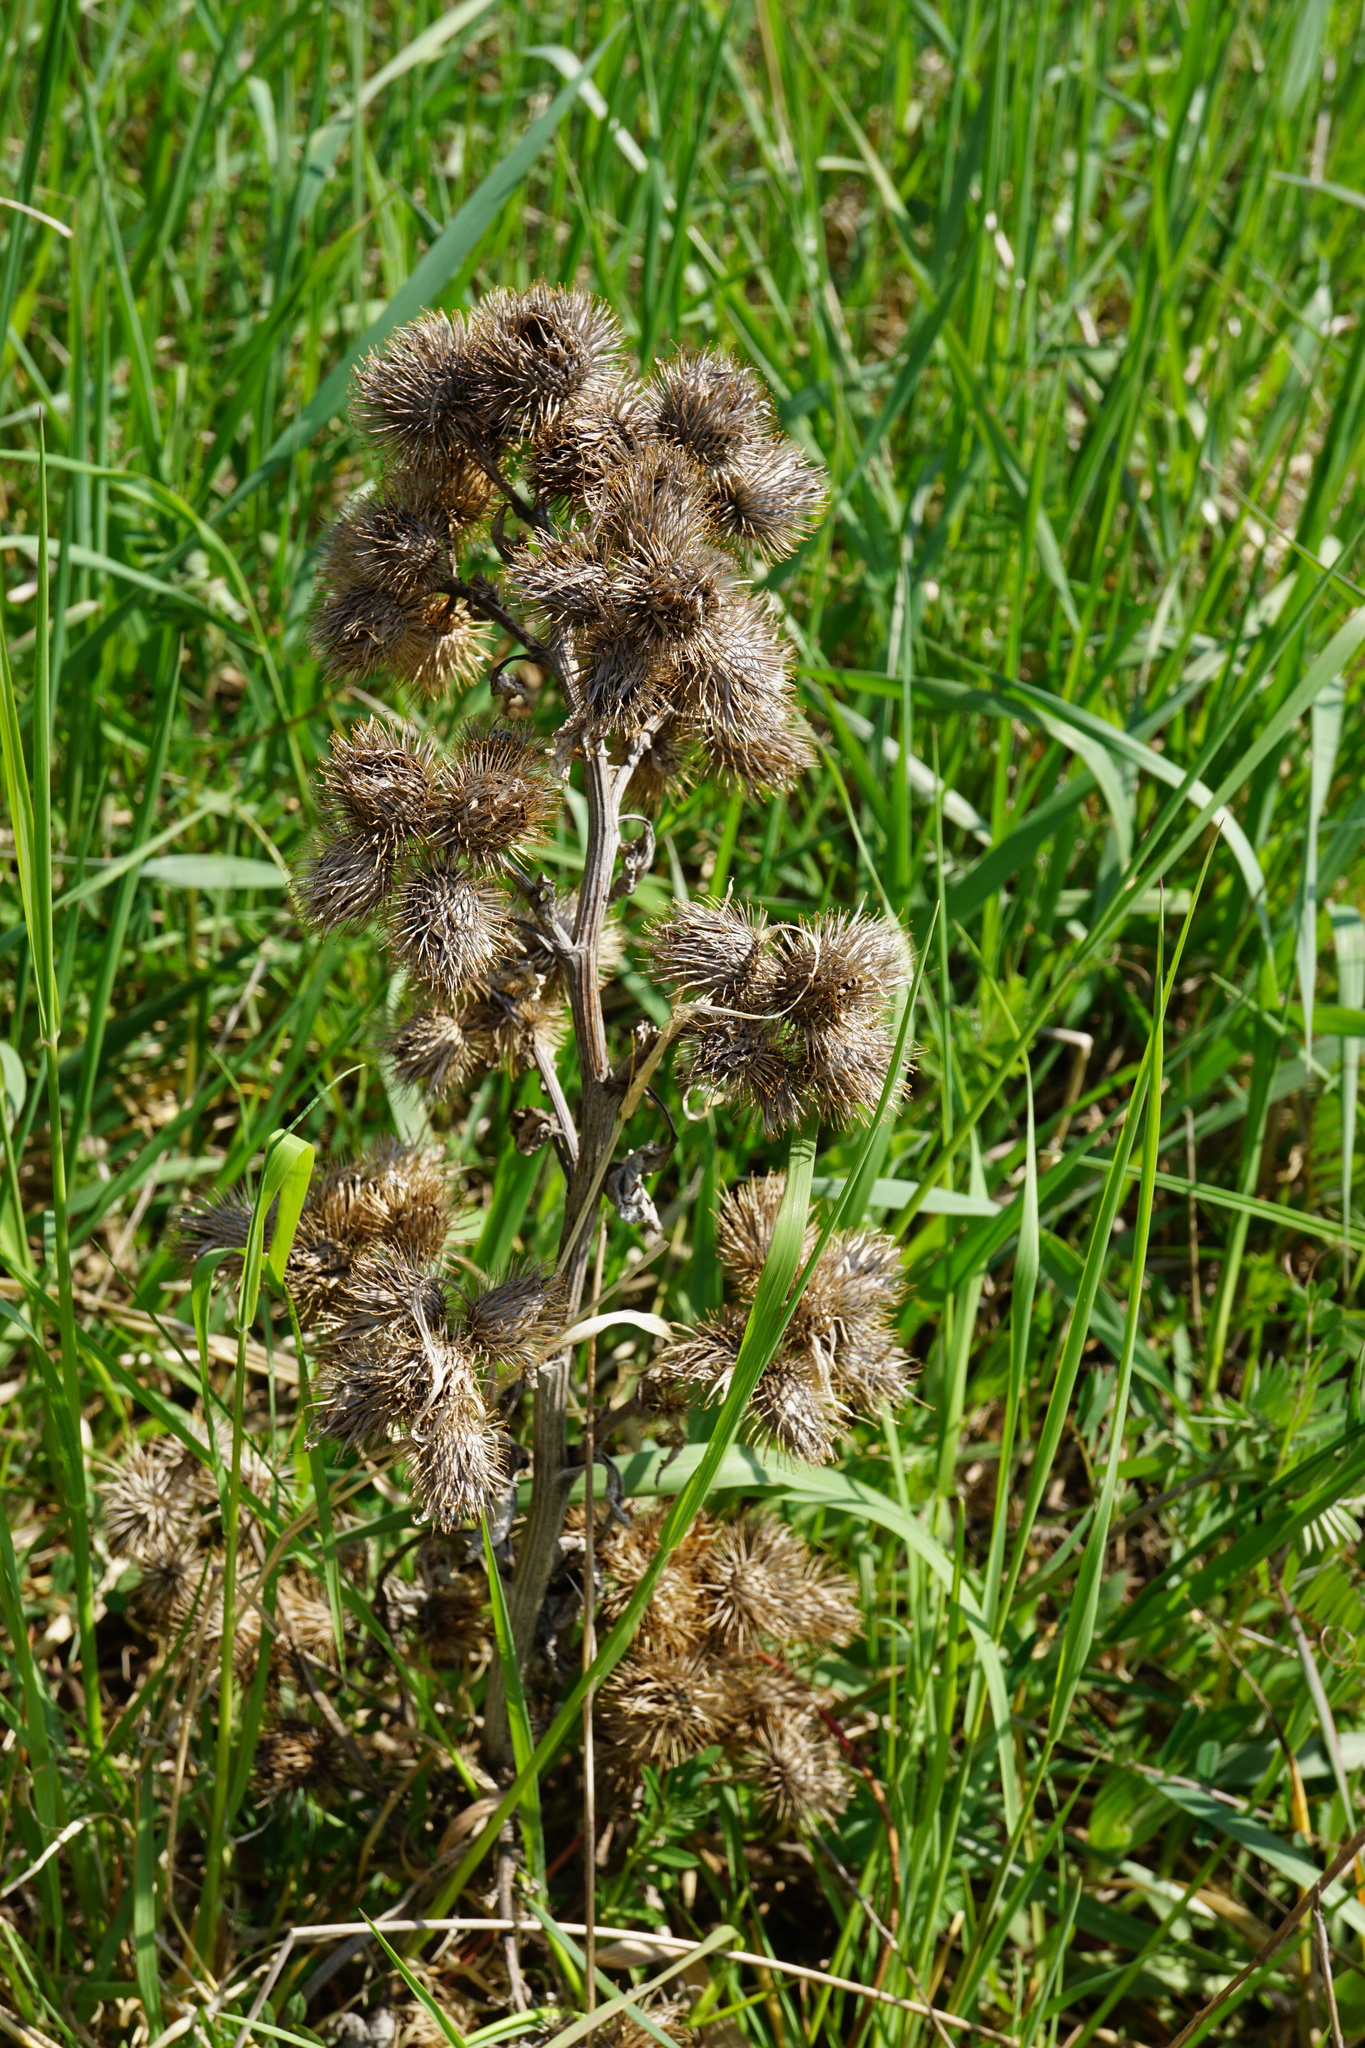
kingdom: Plantae
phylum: Tracheophyta
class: Magnoliopsida
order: Asterales
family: Asteraceae
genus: Arctium
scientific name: Arctium minus
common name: Lesser burdock
